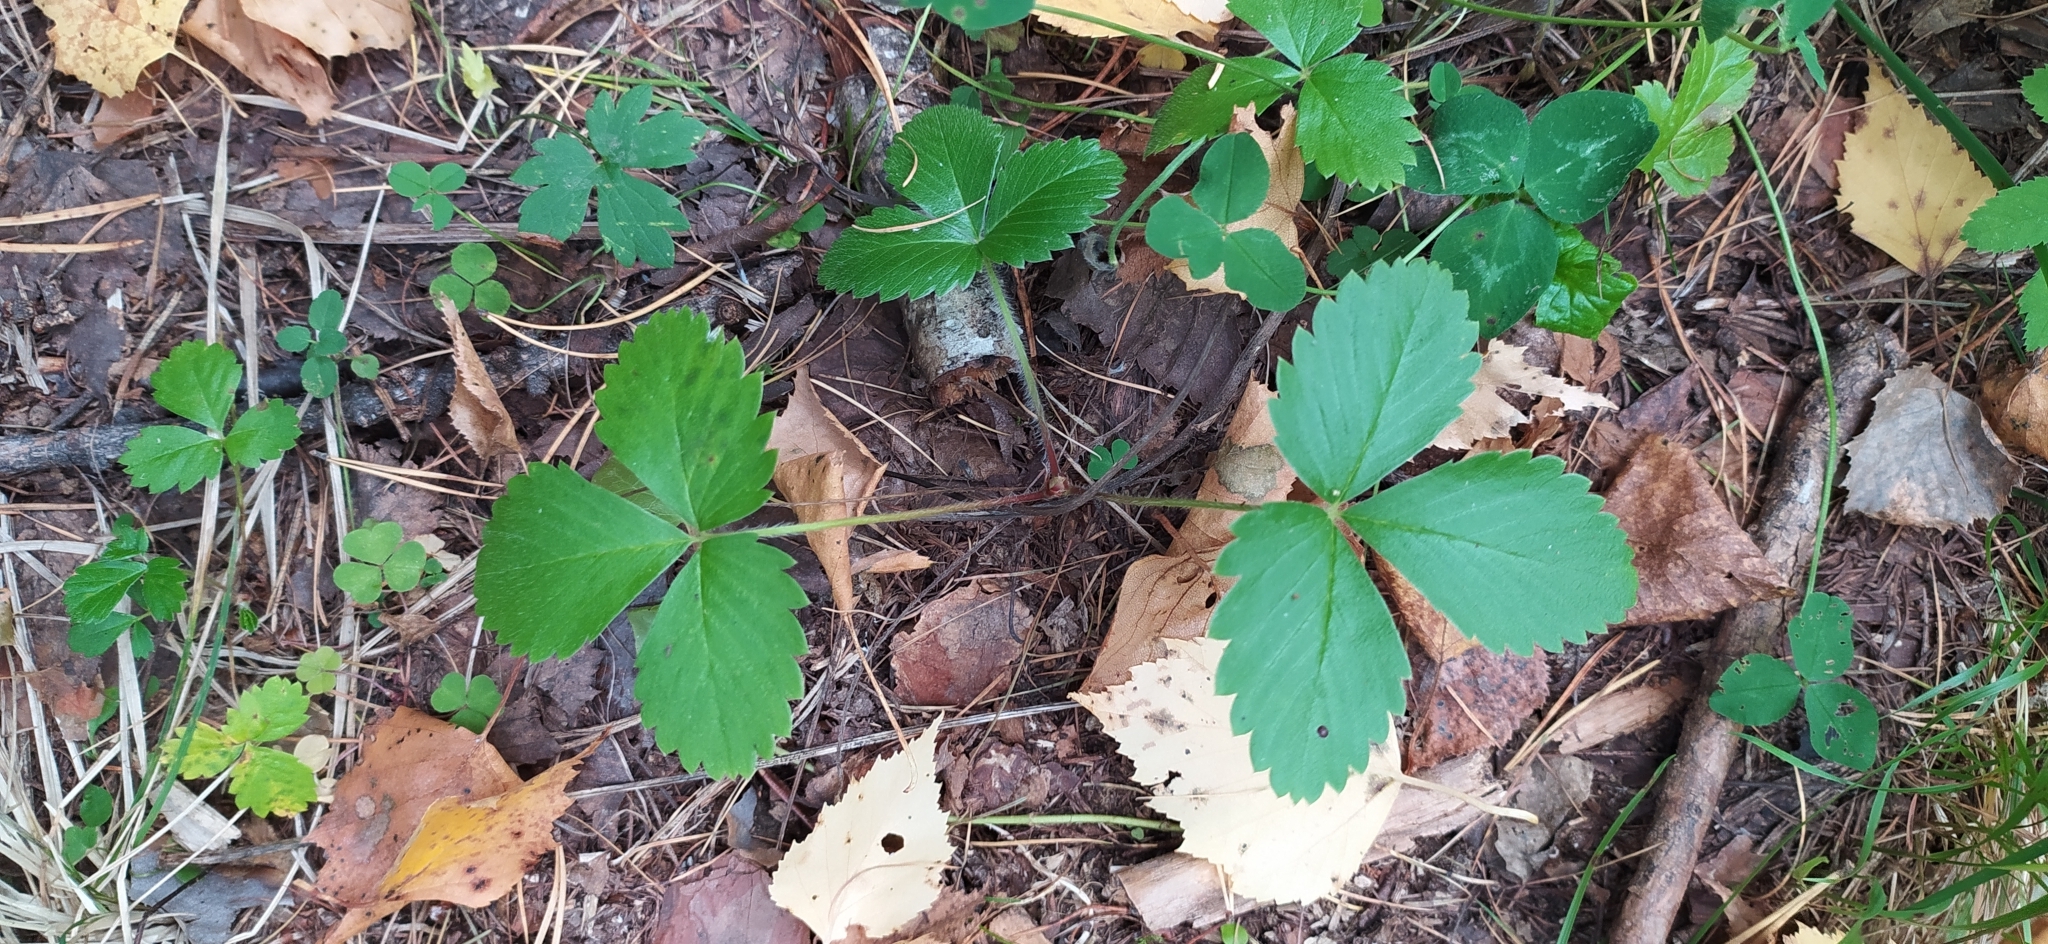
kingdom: Plantae
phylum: Tracheophyta
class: Magnoliopsida
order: Rosales
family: Rosaceae
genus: Fragaria
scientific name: Fragaria vesca
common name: Wild strawberry
